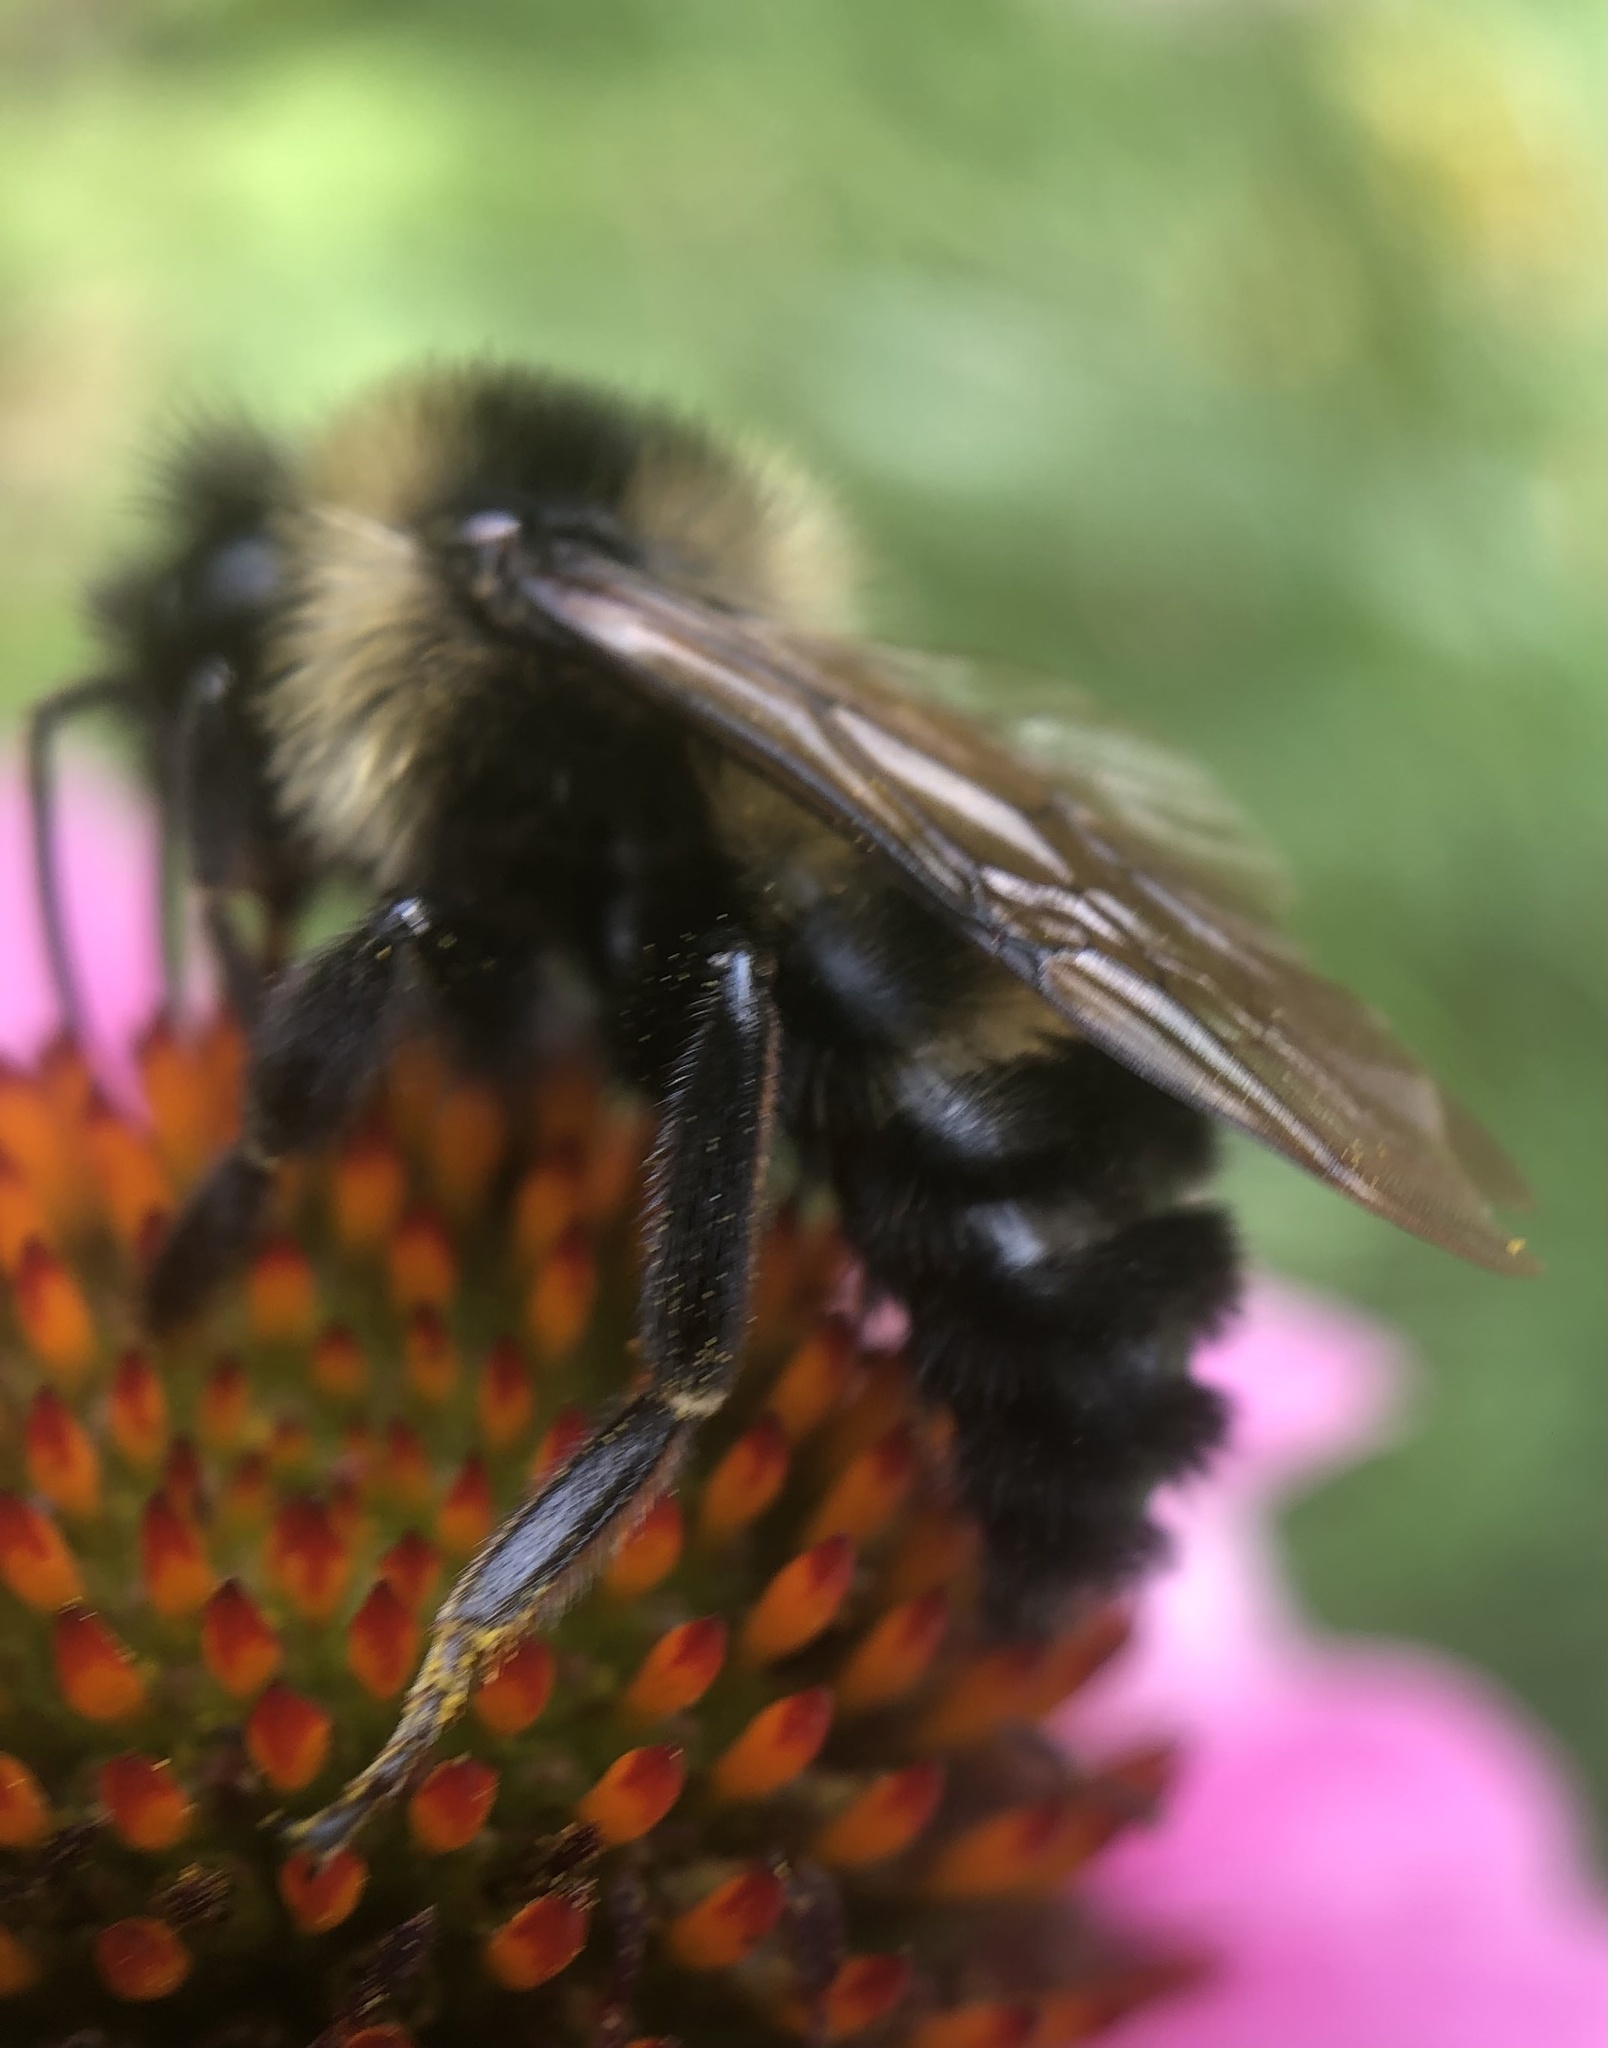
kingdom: Animalia
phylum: Arthropoda
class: Insecta
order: Hymenoptera
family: Apidae
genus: Bombus
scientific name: Bombus citrinus
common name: Lemon cuckoo bumble bee
